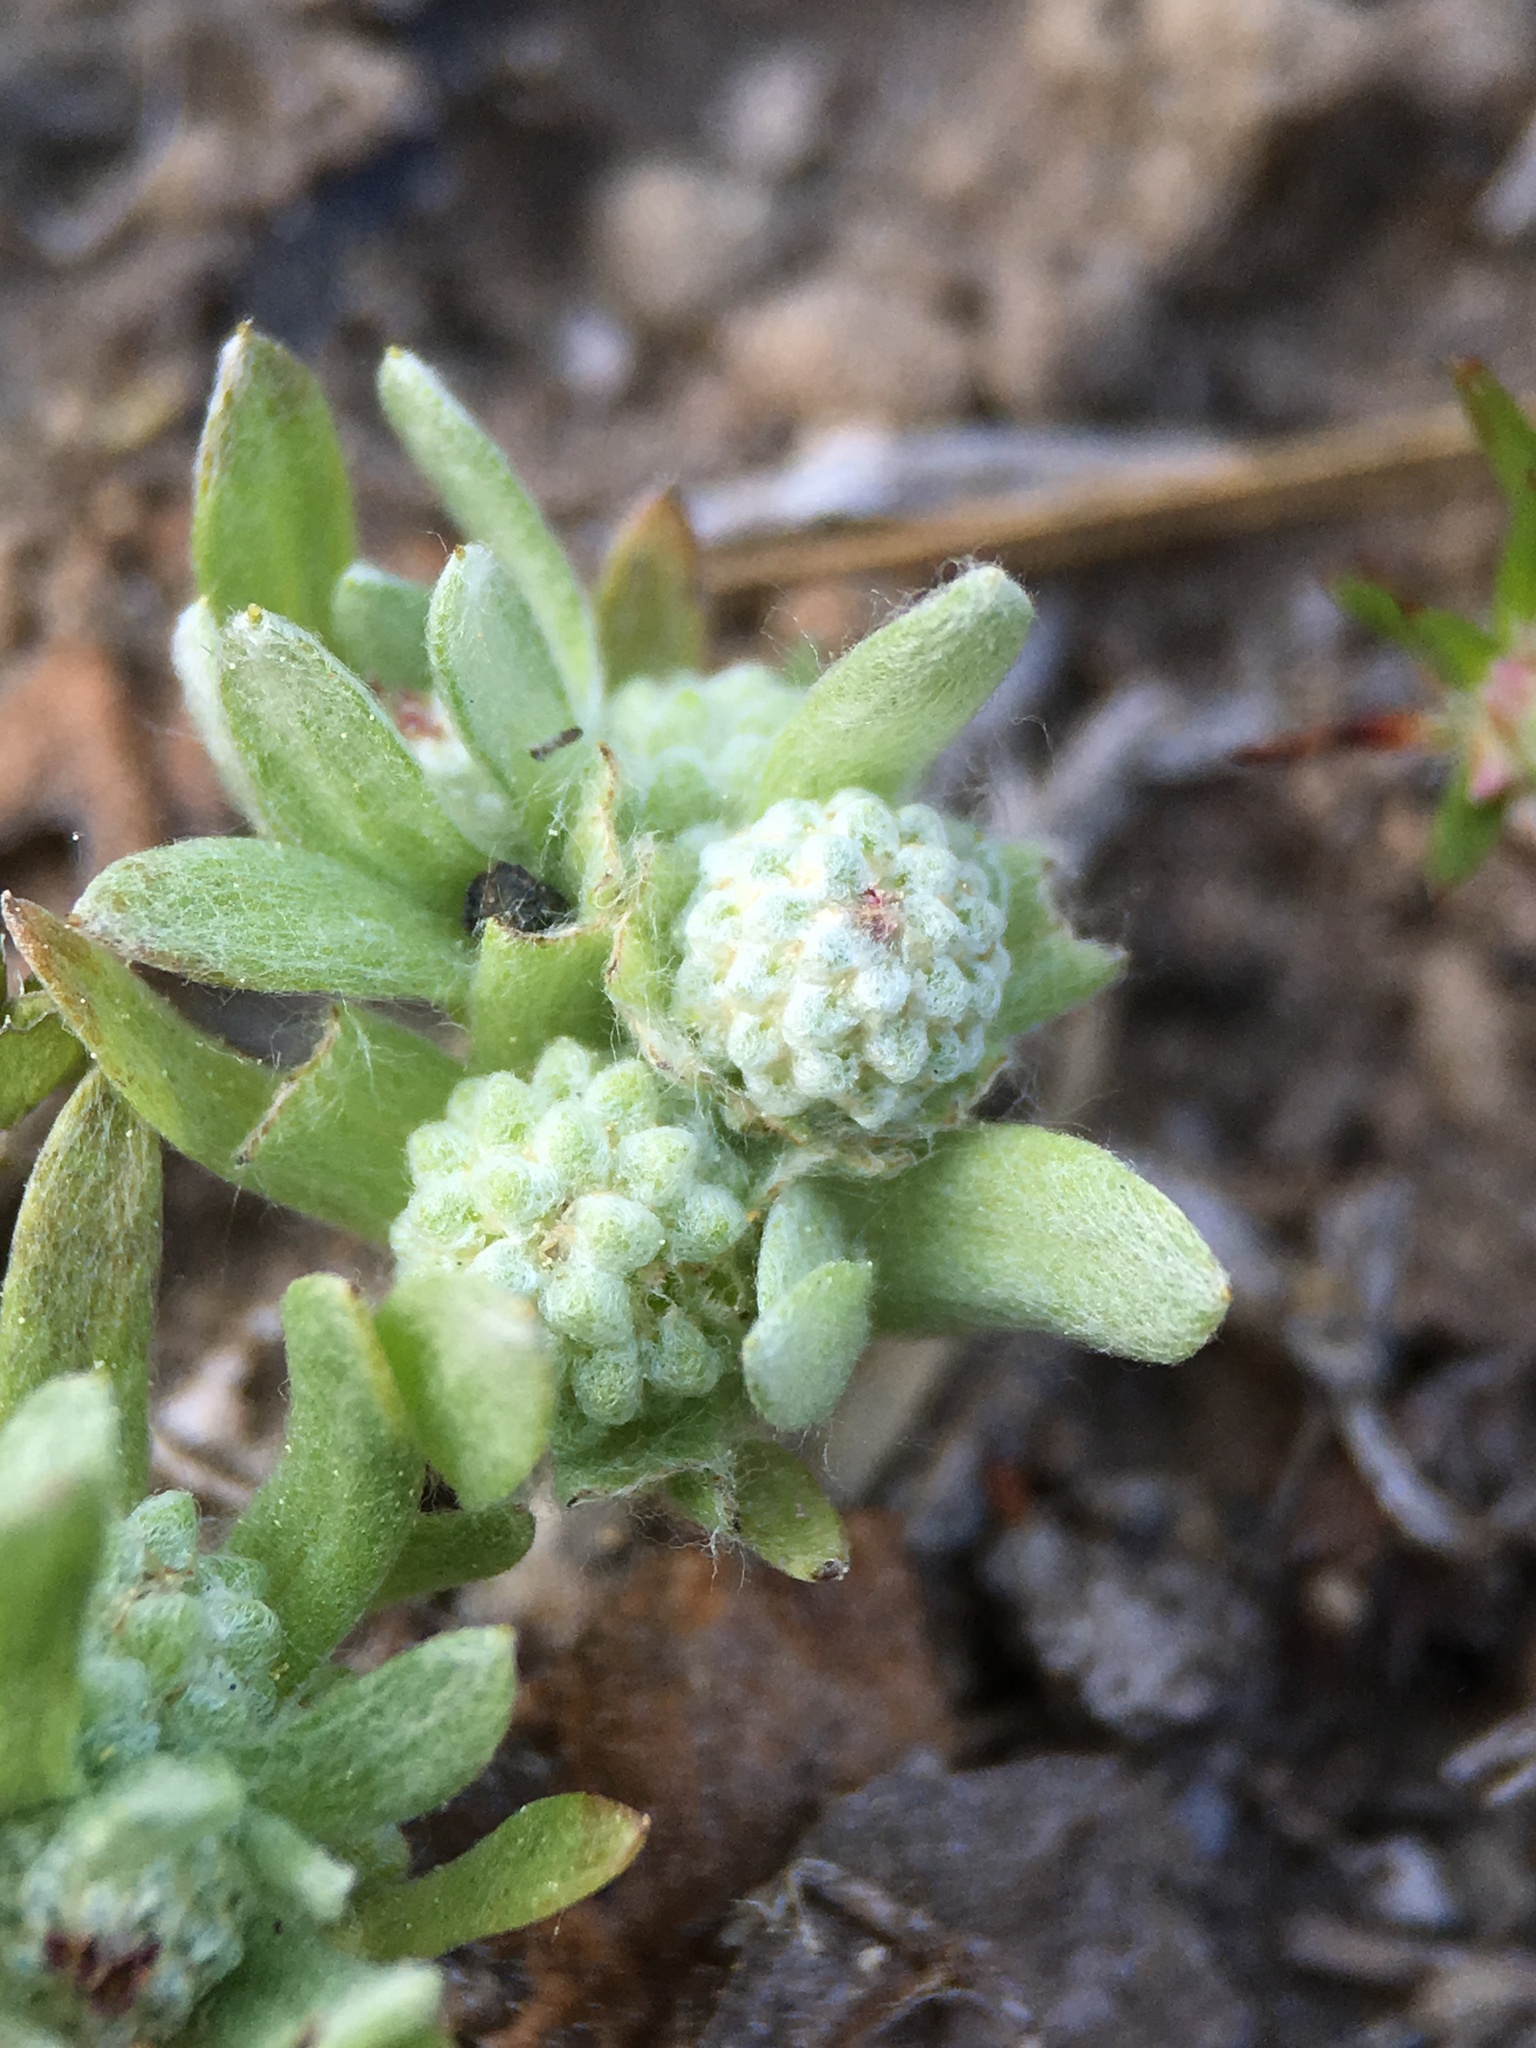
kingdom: Plantae
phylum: Tracheophyta
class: Magnoliopsida
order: Asterales
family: Asteraceae
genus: Psilocarphus
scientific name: Psilocarphus tenellus
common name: Slender woolly-marbles
